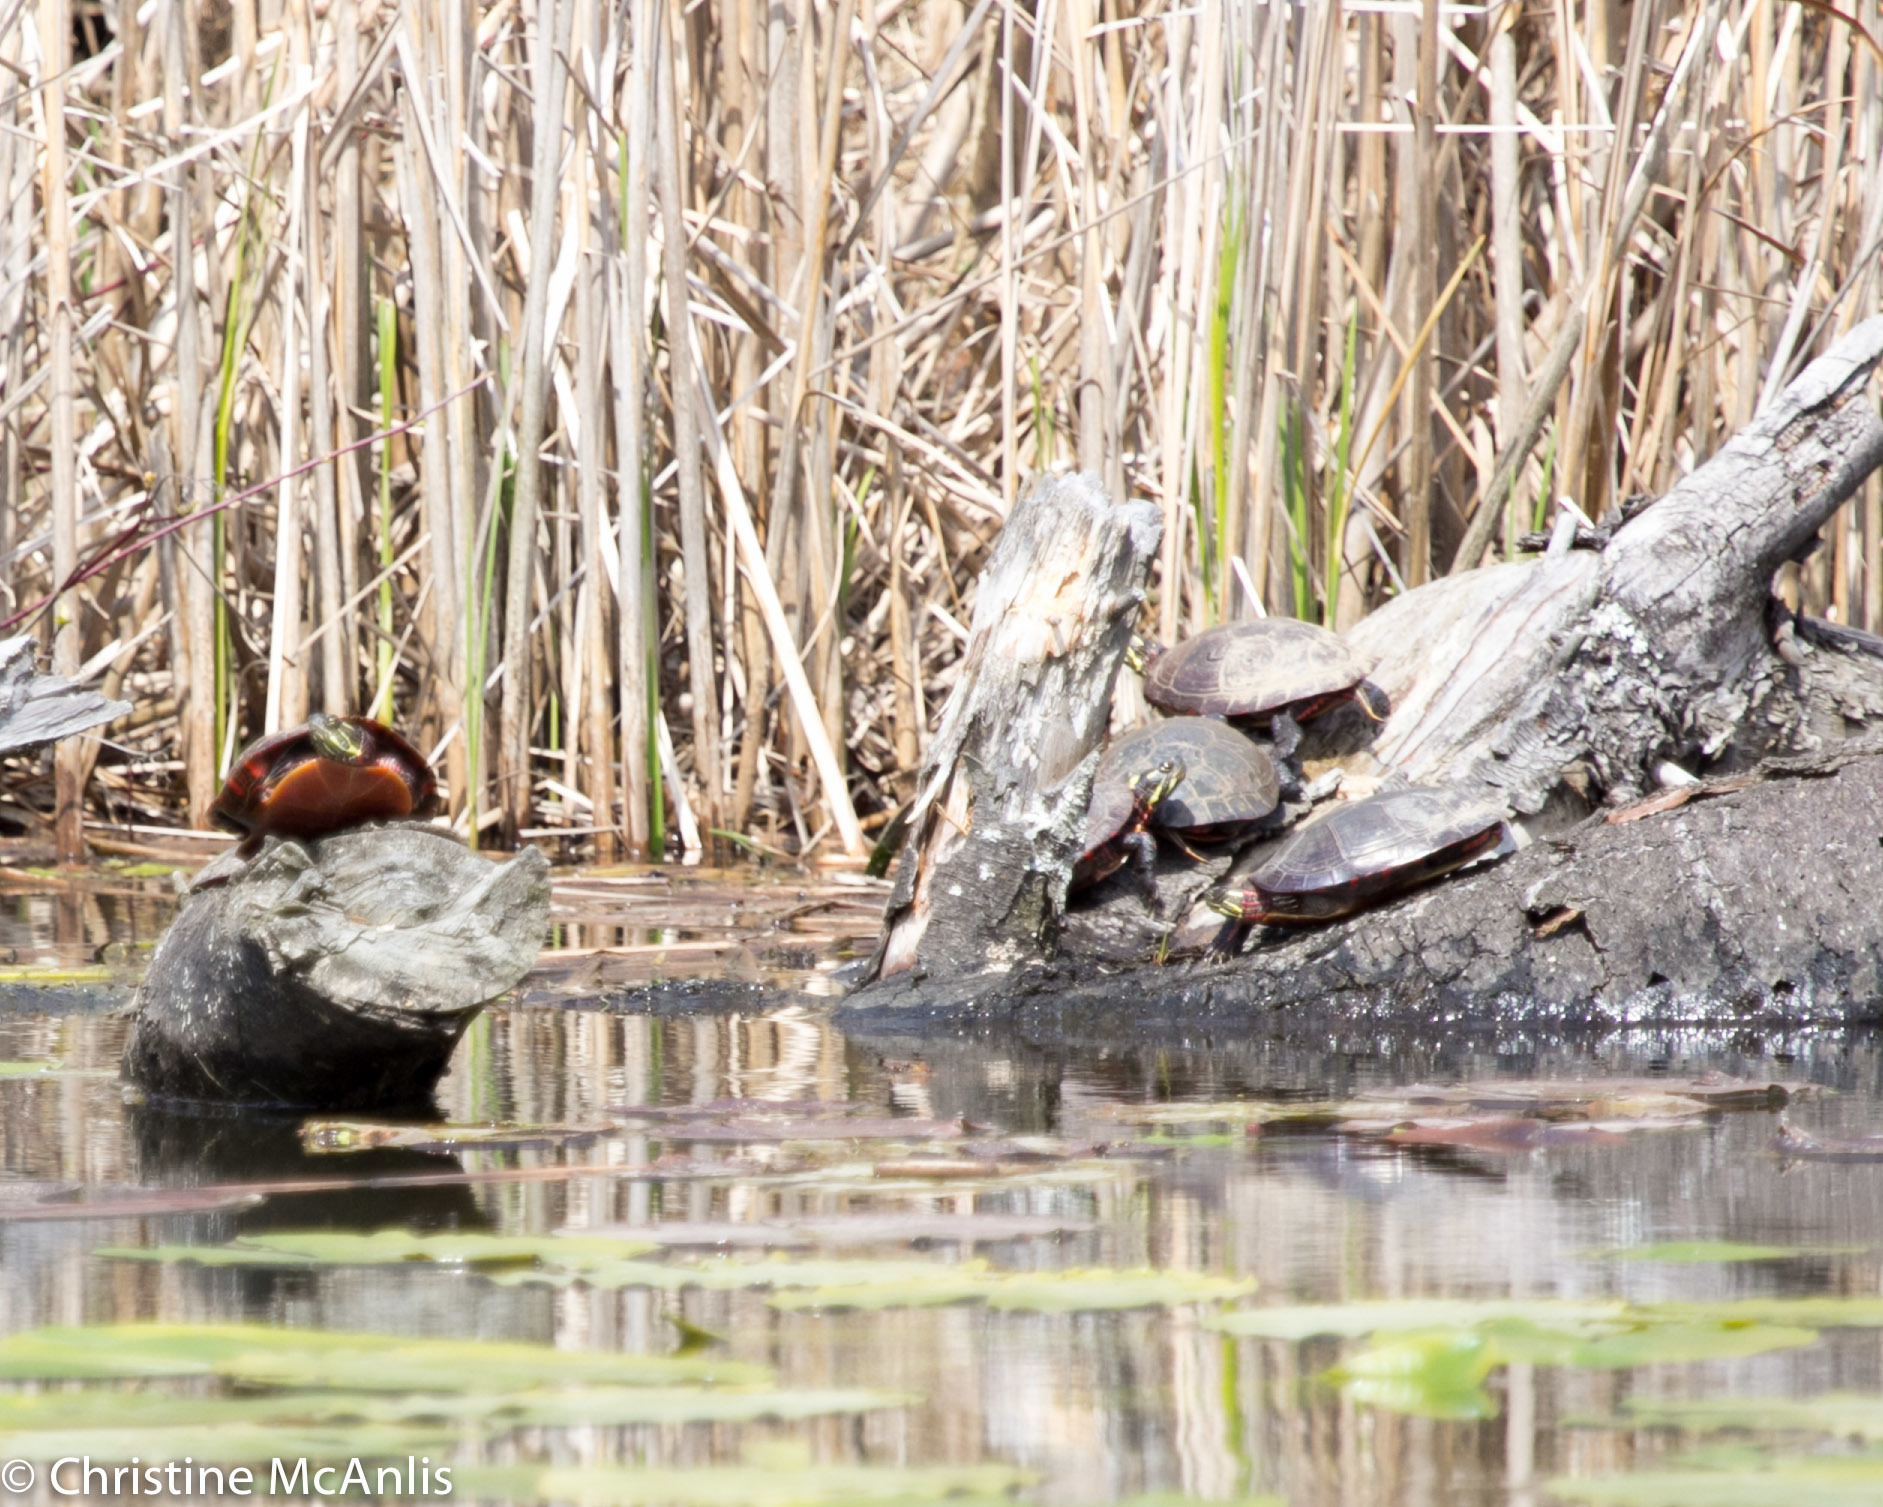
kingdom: Animalia
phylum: Chordata
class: Testudines
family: Emydidae
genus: Chrysemys
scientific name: Chrysemys picta
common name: Painted turtle
